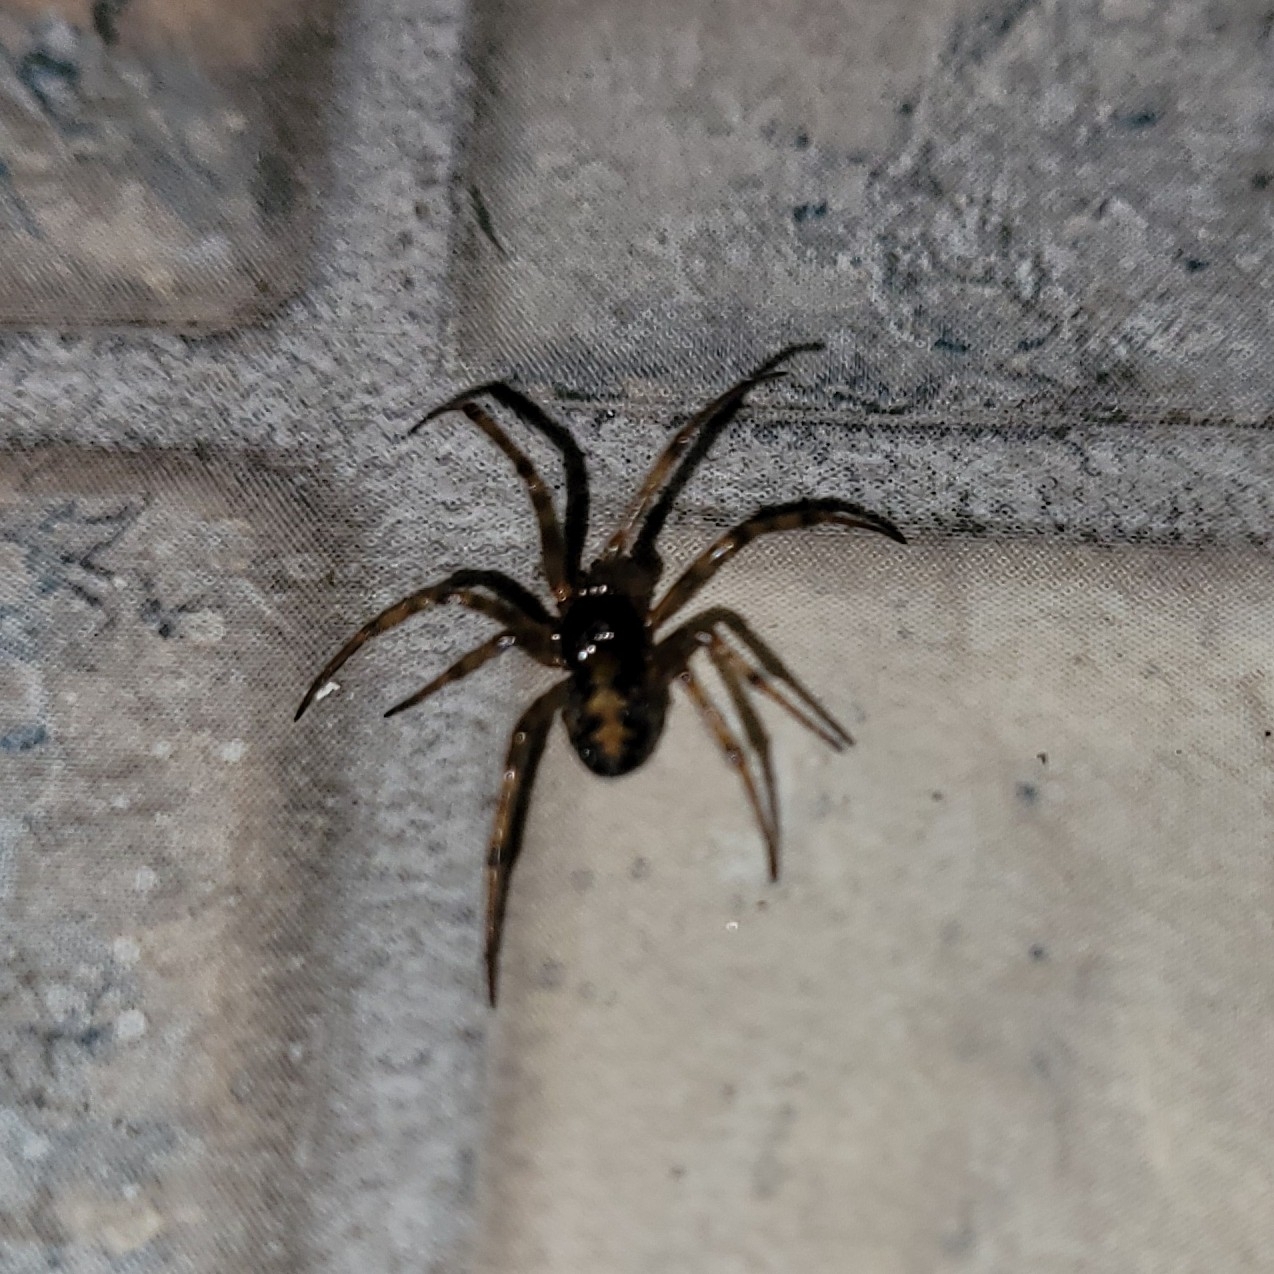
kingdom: Animalia
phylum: Arthropoda
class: Arachnida
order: Araneae
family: Theridiidae
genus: Steatoda
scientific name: Steatoda triangulosa
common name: Triangulate bud spider
